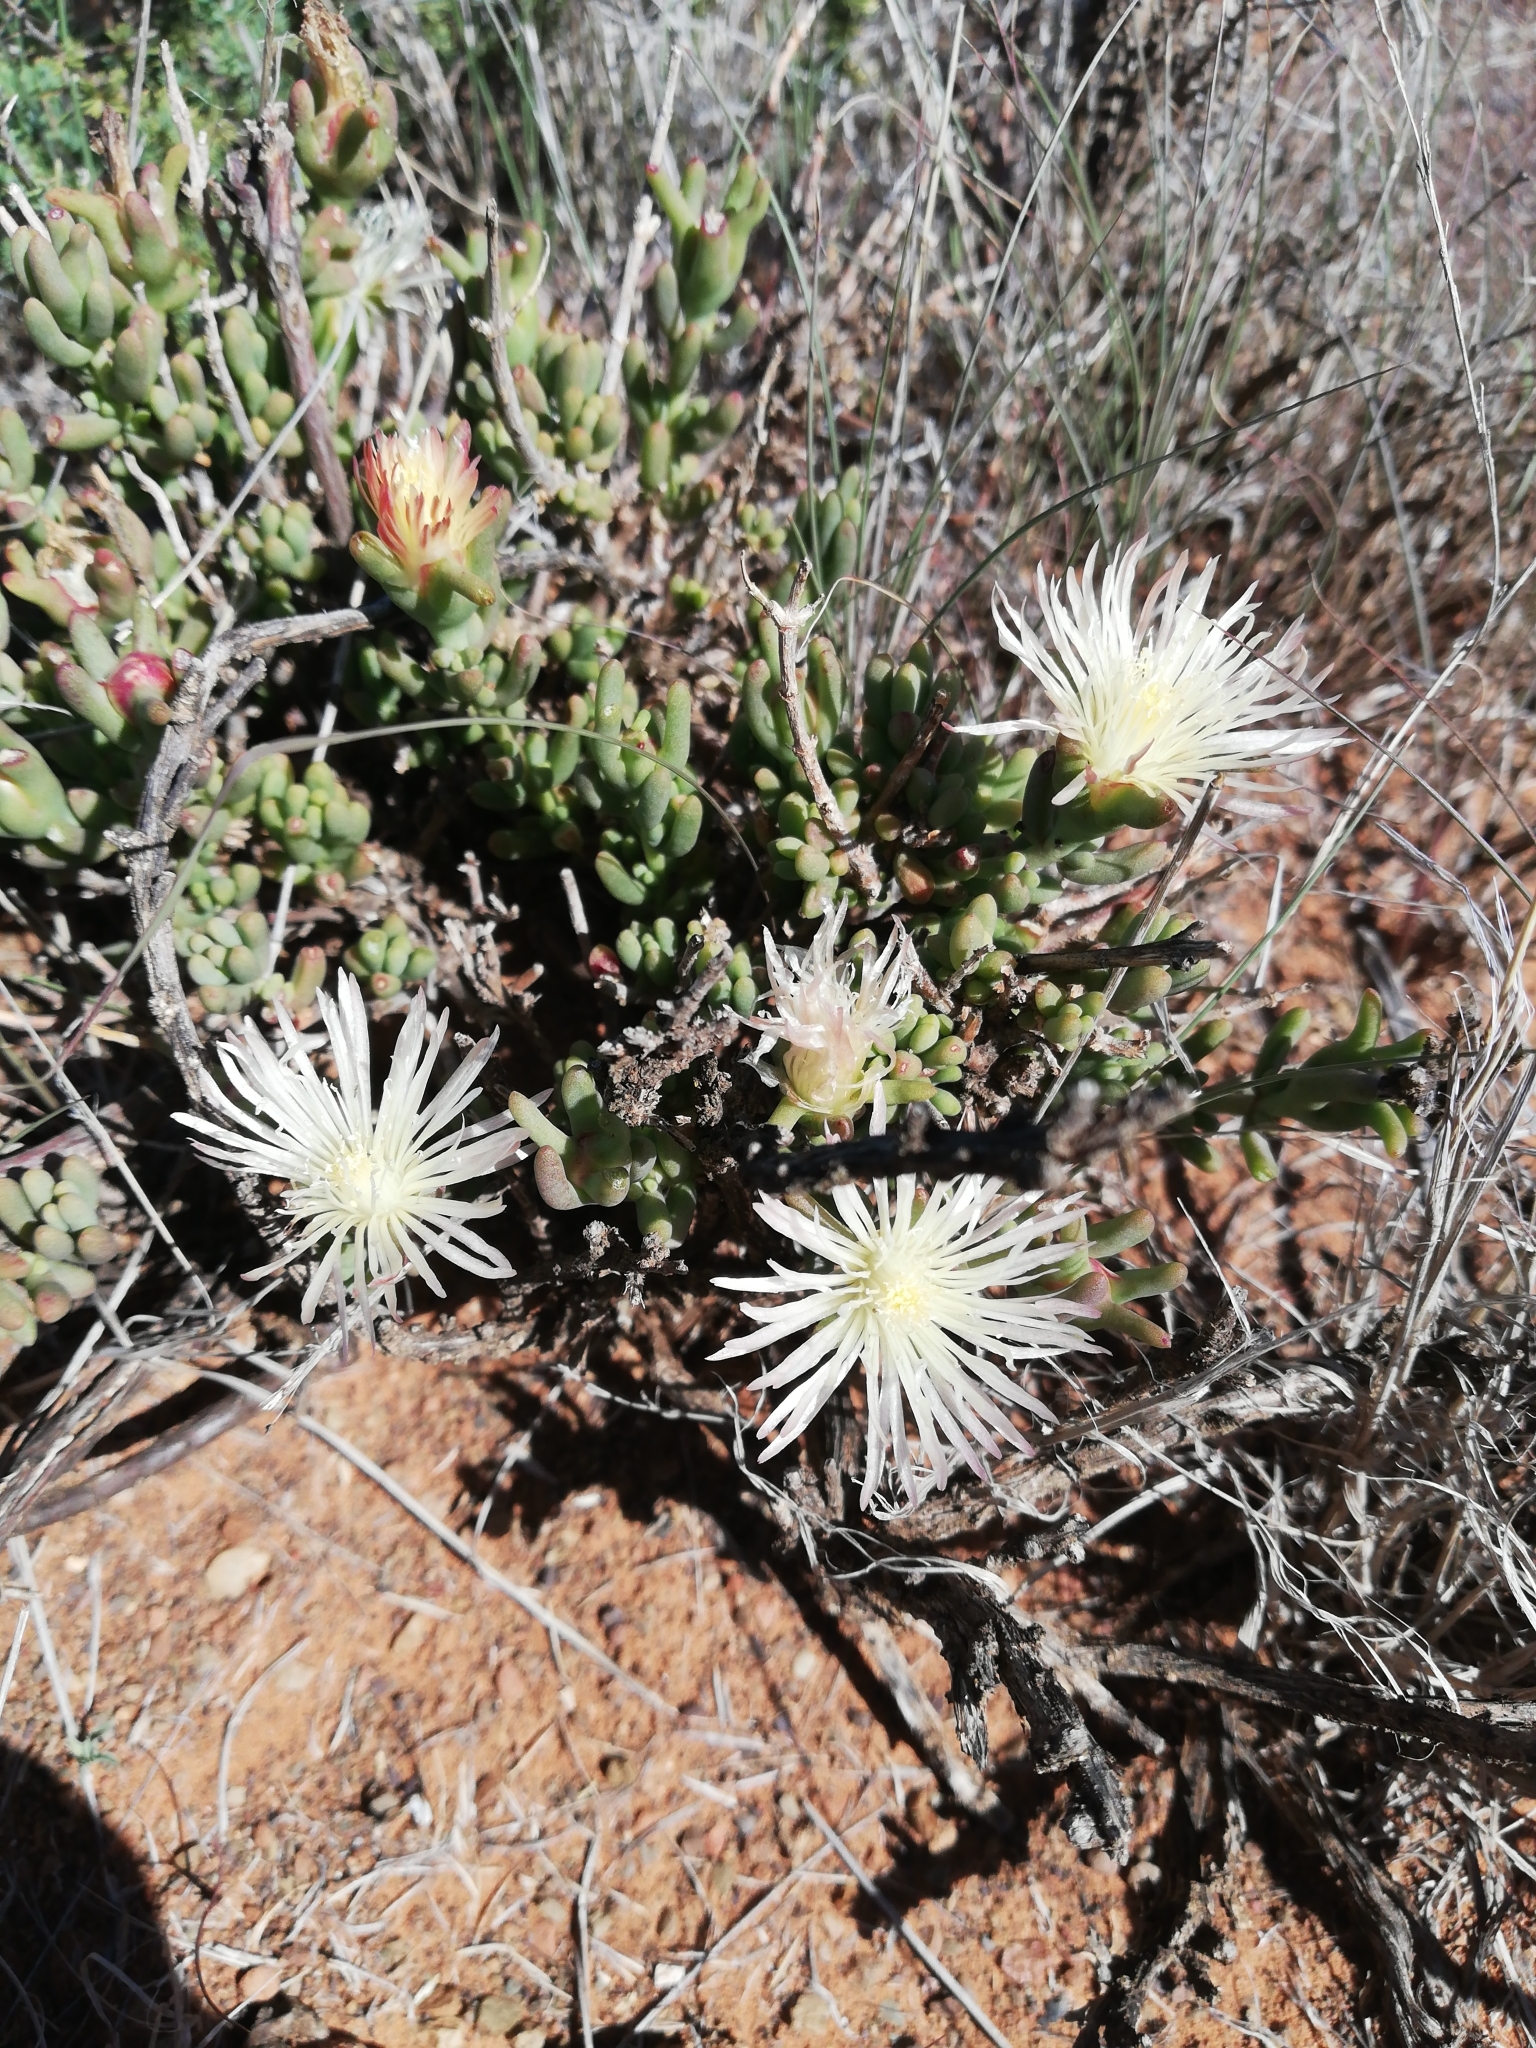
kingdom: Plantae
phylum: Tracheophyta
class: Magnoliopsida
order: Caryophyllales
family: Aizoaceae
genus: Mesembryanthemum
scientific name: Mesembryanthemum splendens
